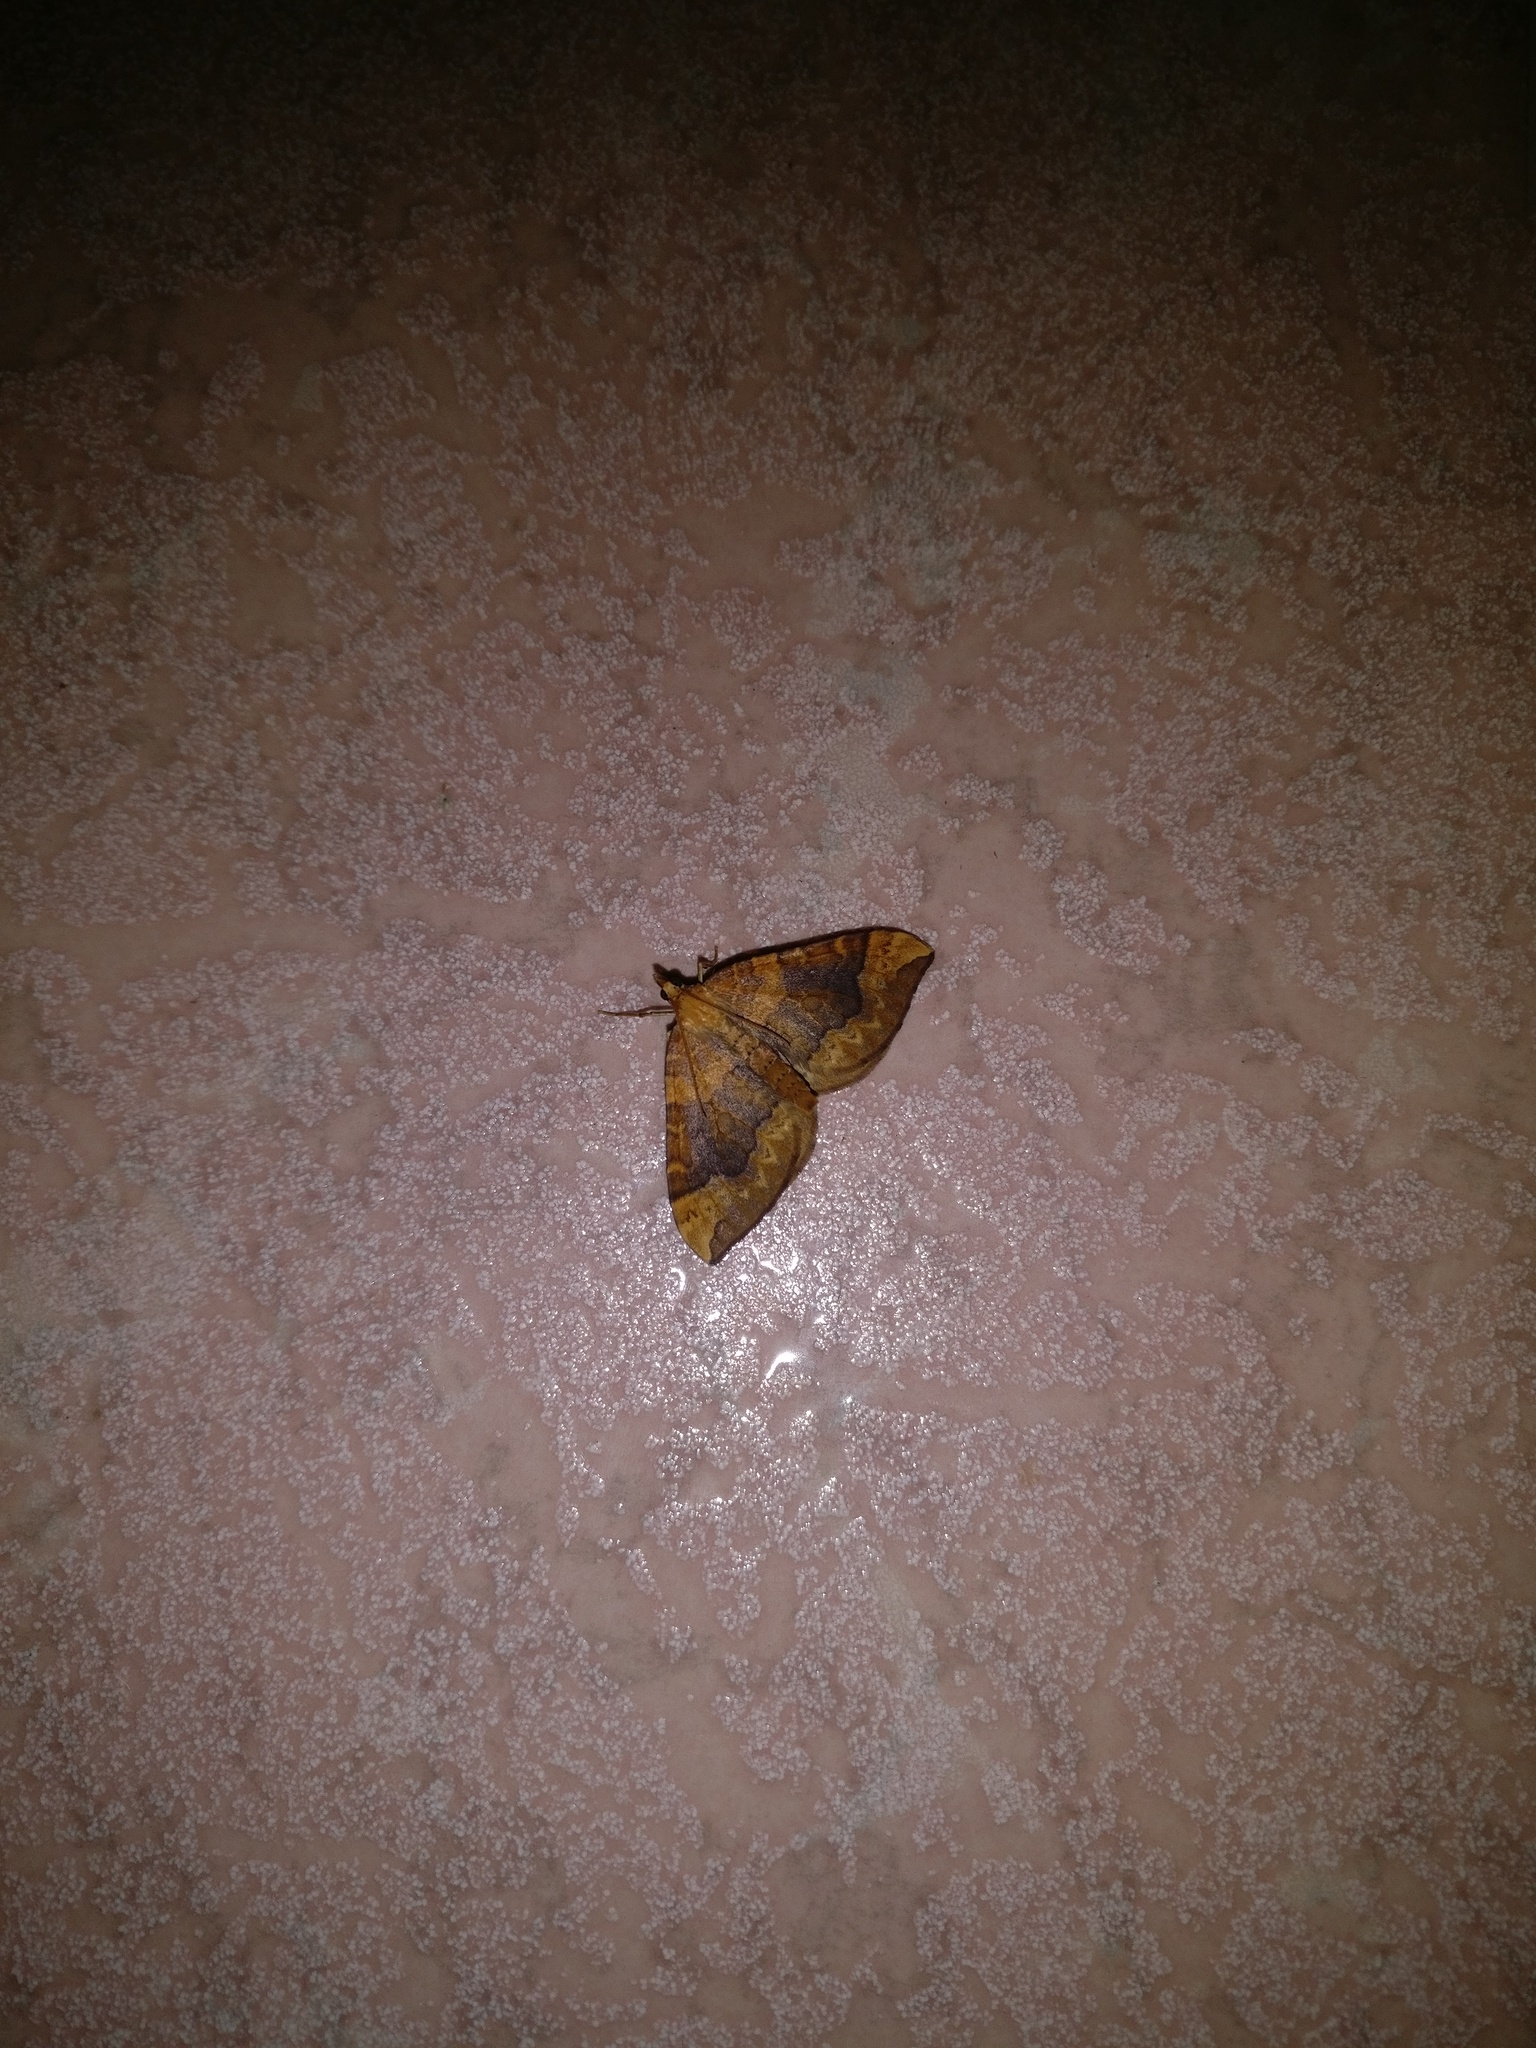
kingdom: Animalia
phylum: Arthropoda
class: Insecta
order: Lepidoptera
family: Geometridae
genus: Eulithis
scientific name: Eulithis populata
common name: Northern spinach
